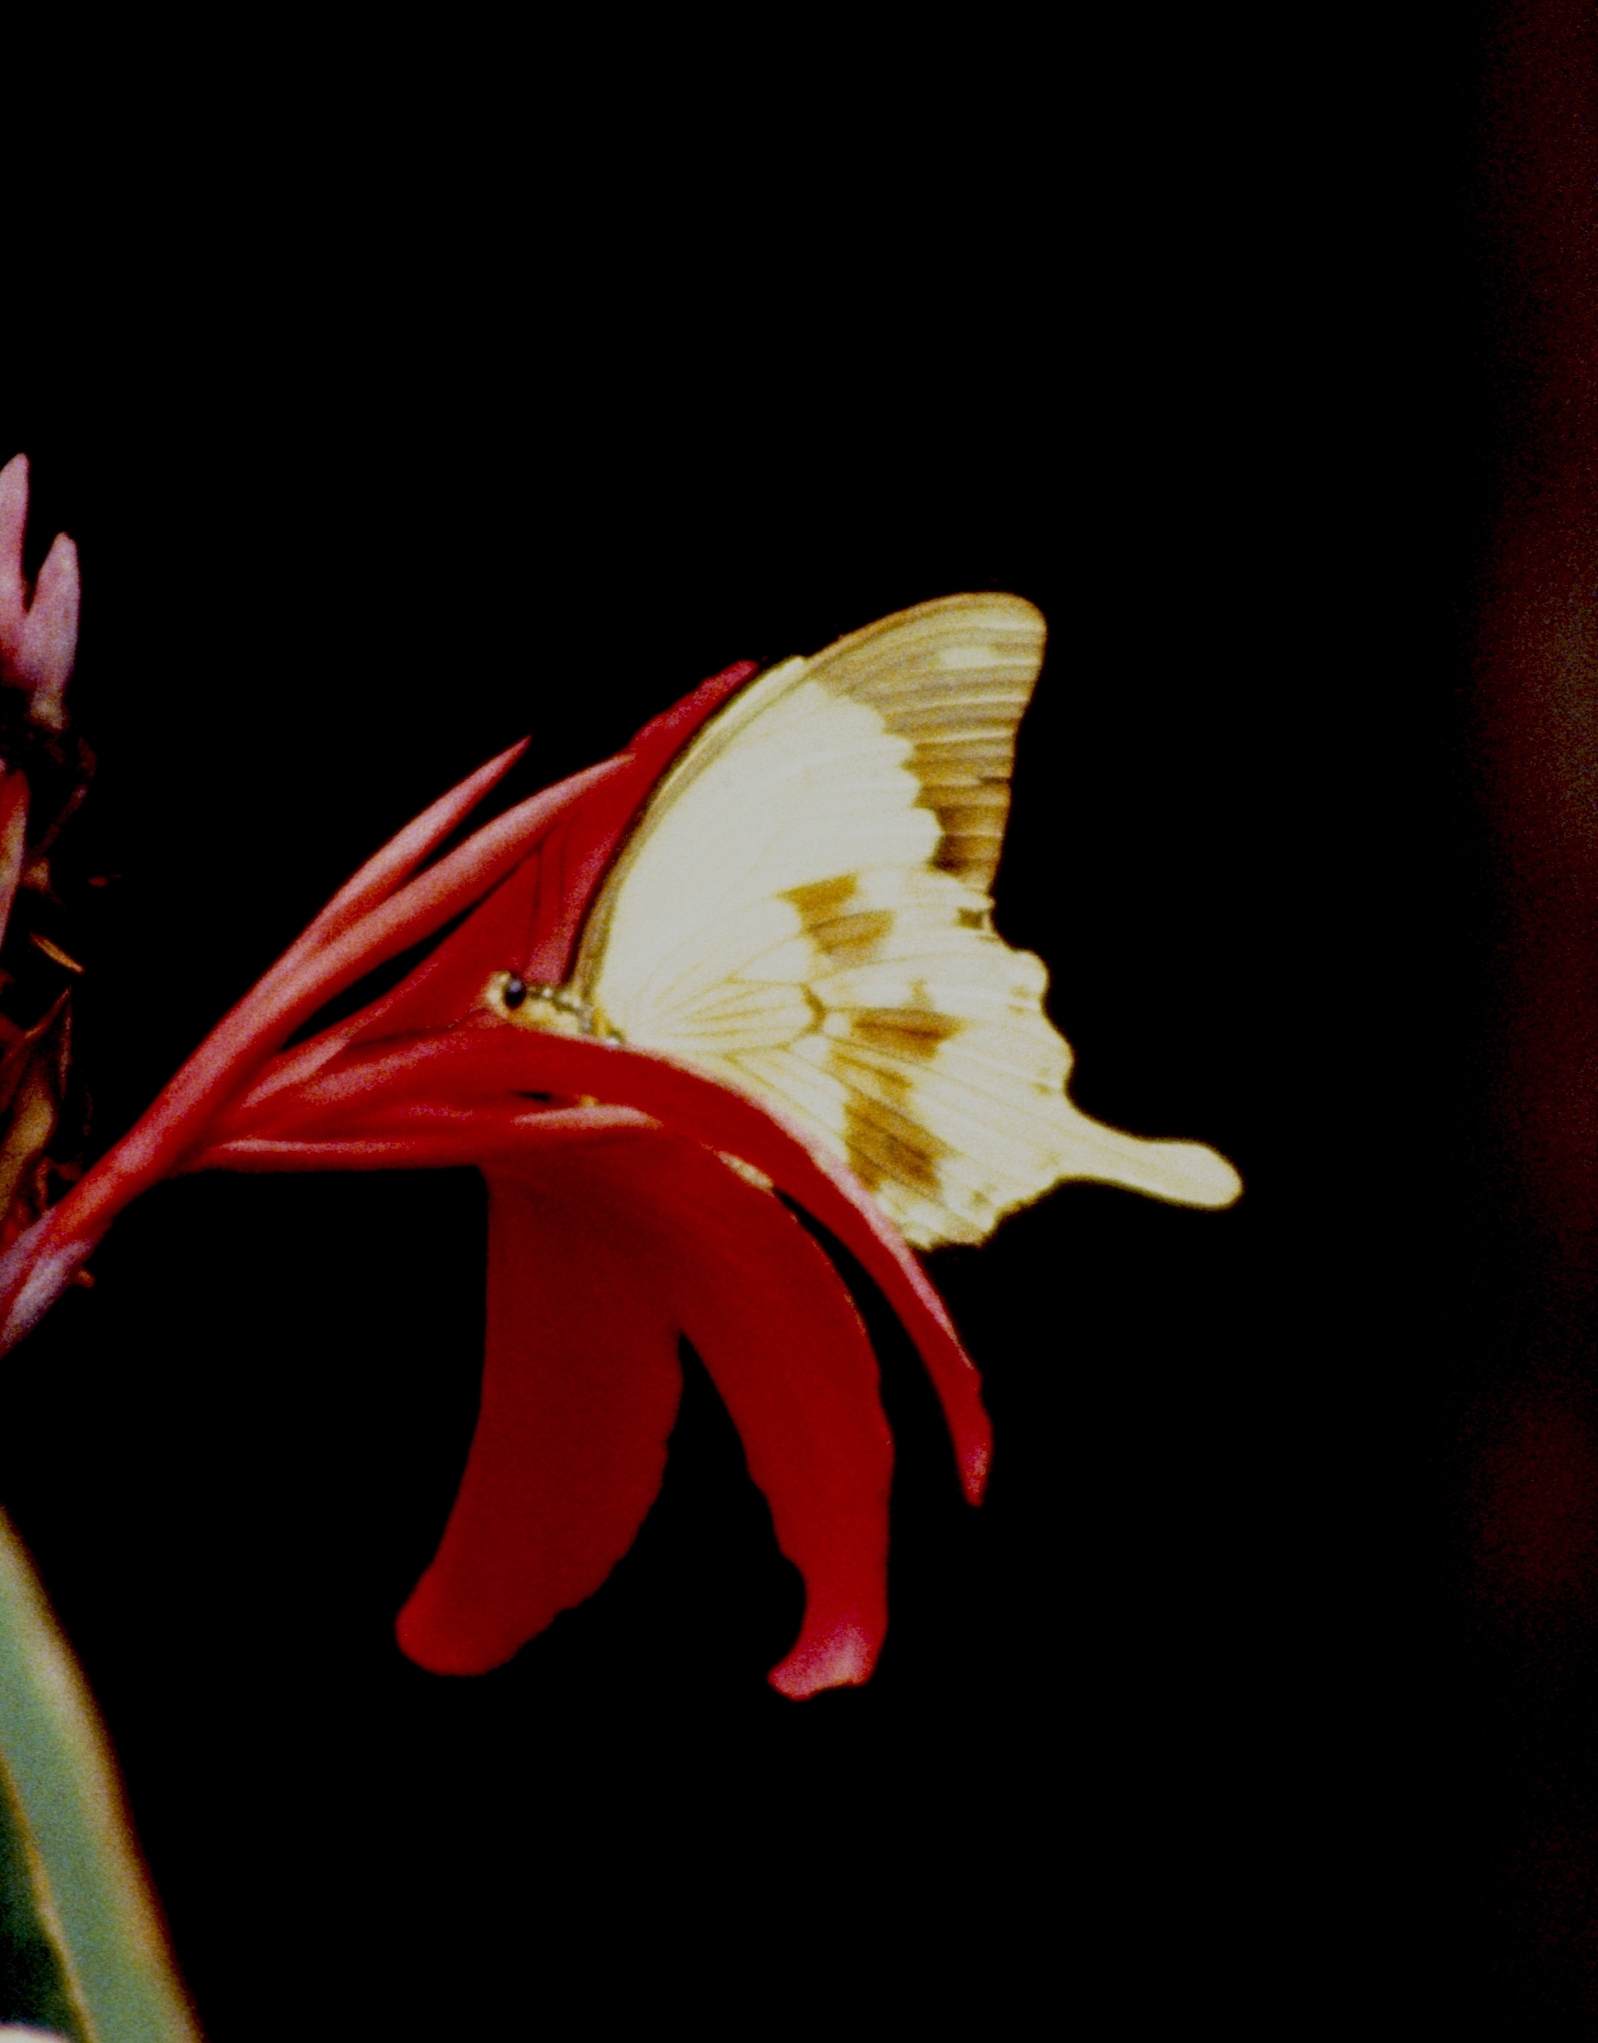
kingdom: Animalia
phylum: Arthropoda
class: Insecta
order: Lepidoptera
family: Papilionidae
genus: Papilio
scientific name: Papilio dardanus
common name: Flying handkerchief
